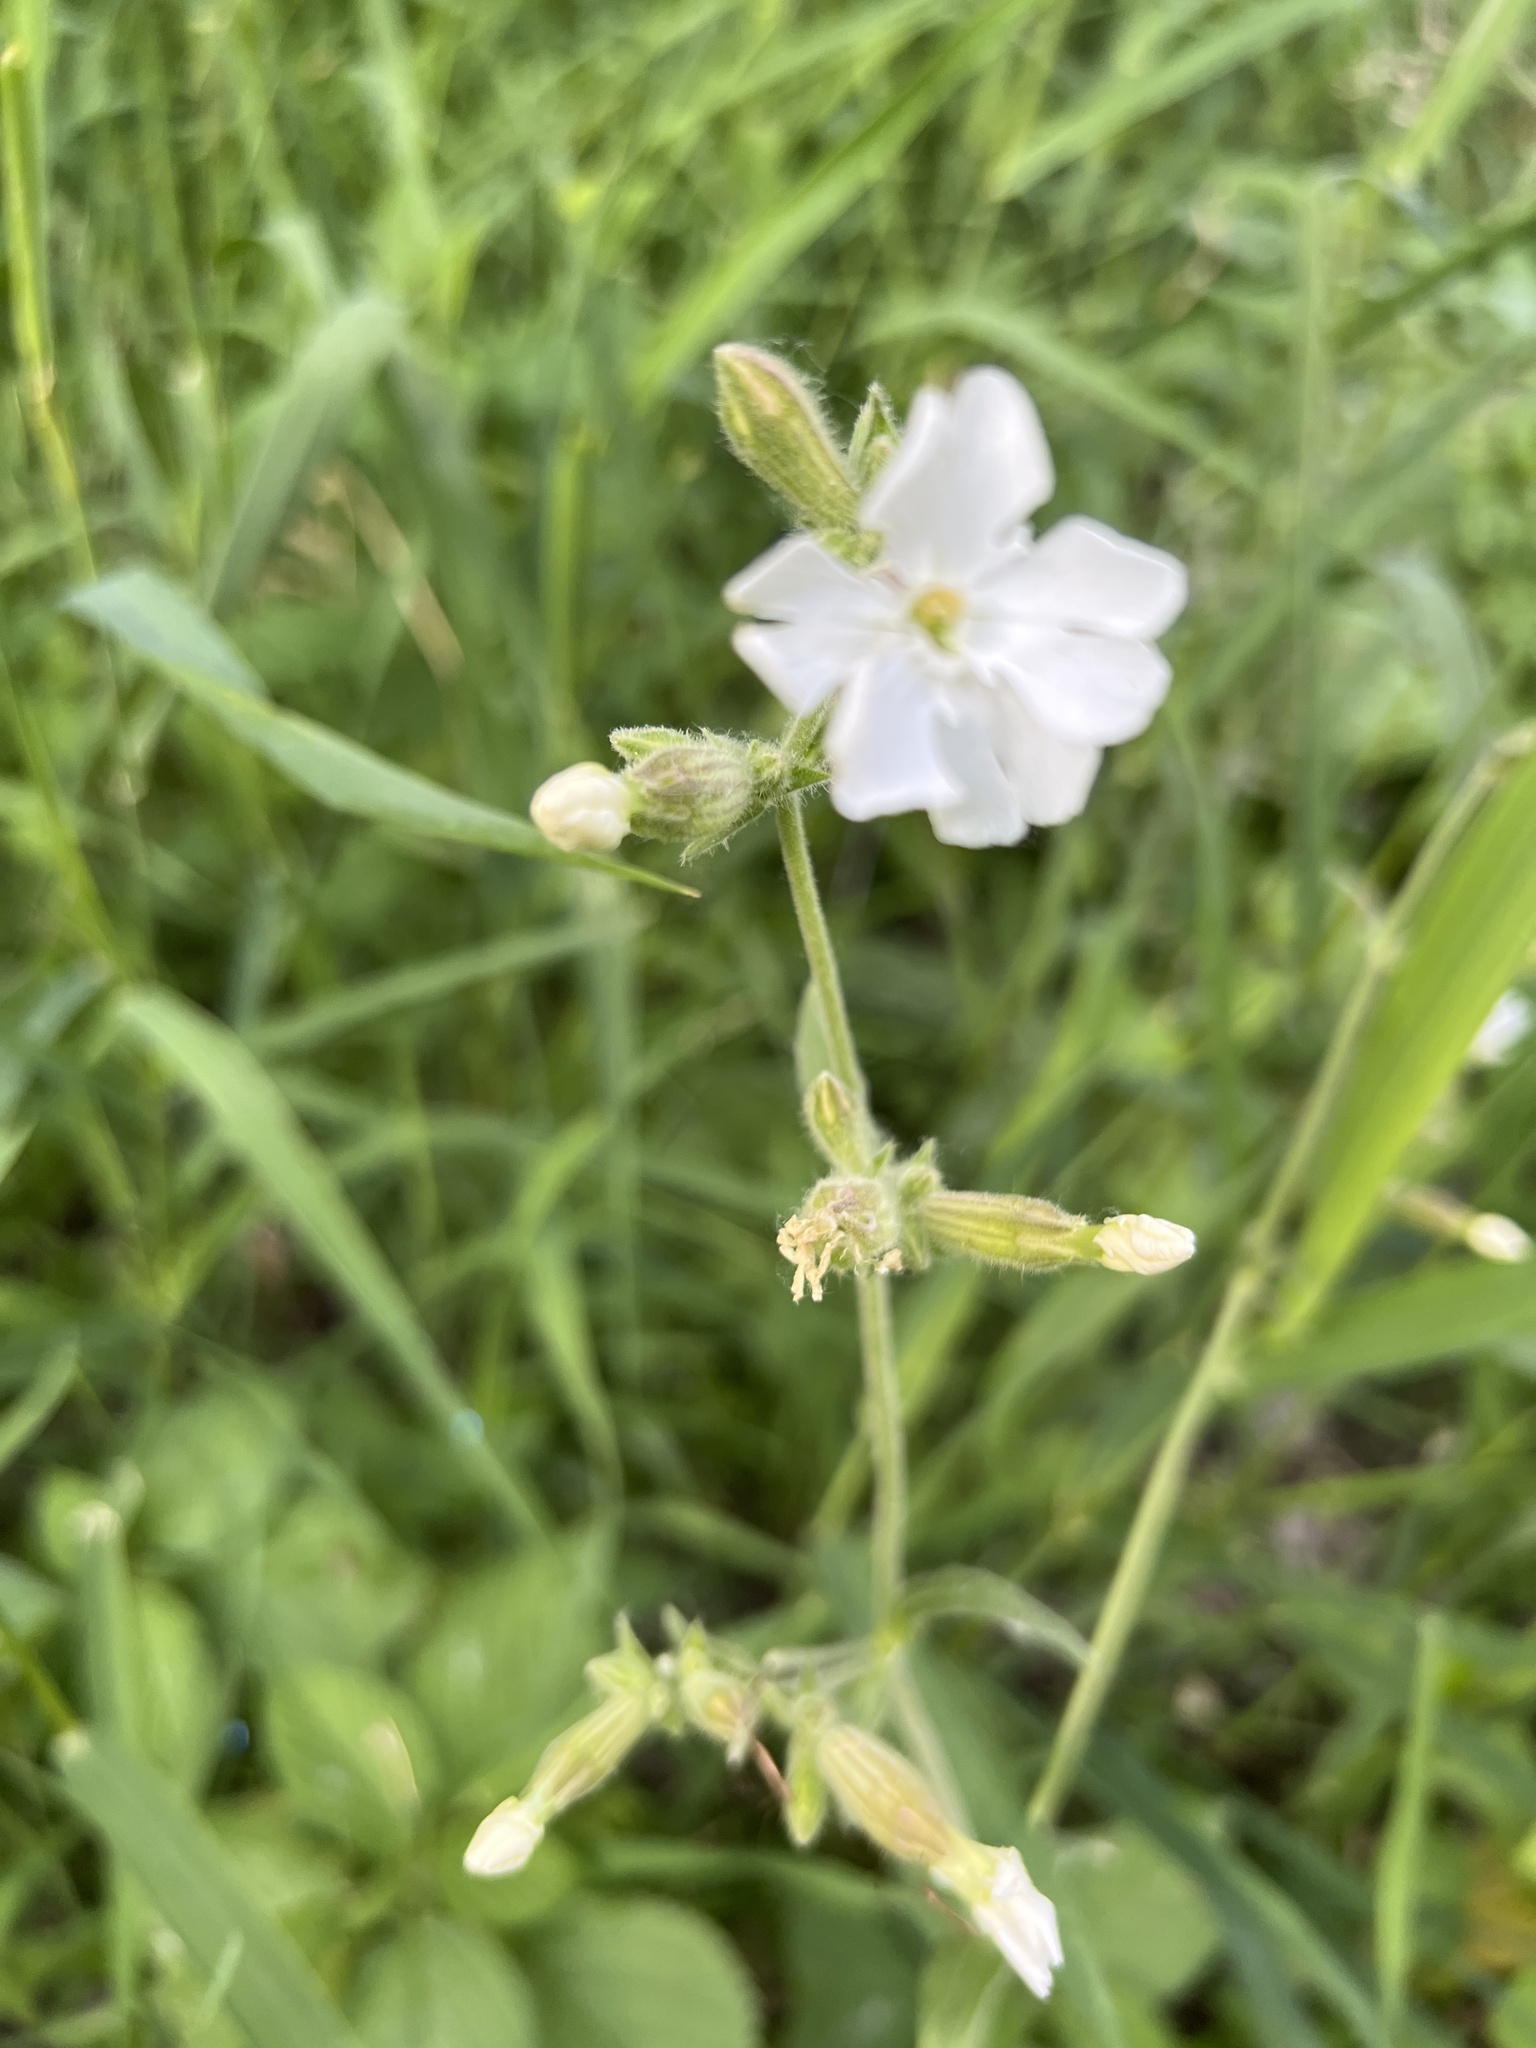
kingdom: Plantae
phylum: Tracheophyta
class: Magnoliopsida
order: Caryophyllales
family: Caryophyllaceae
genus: Silene
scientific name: Silene latifolia
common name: White campion
